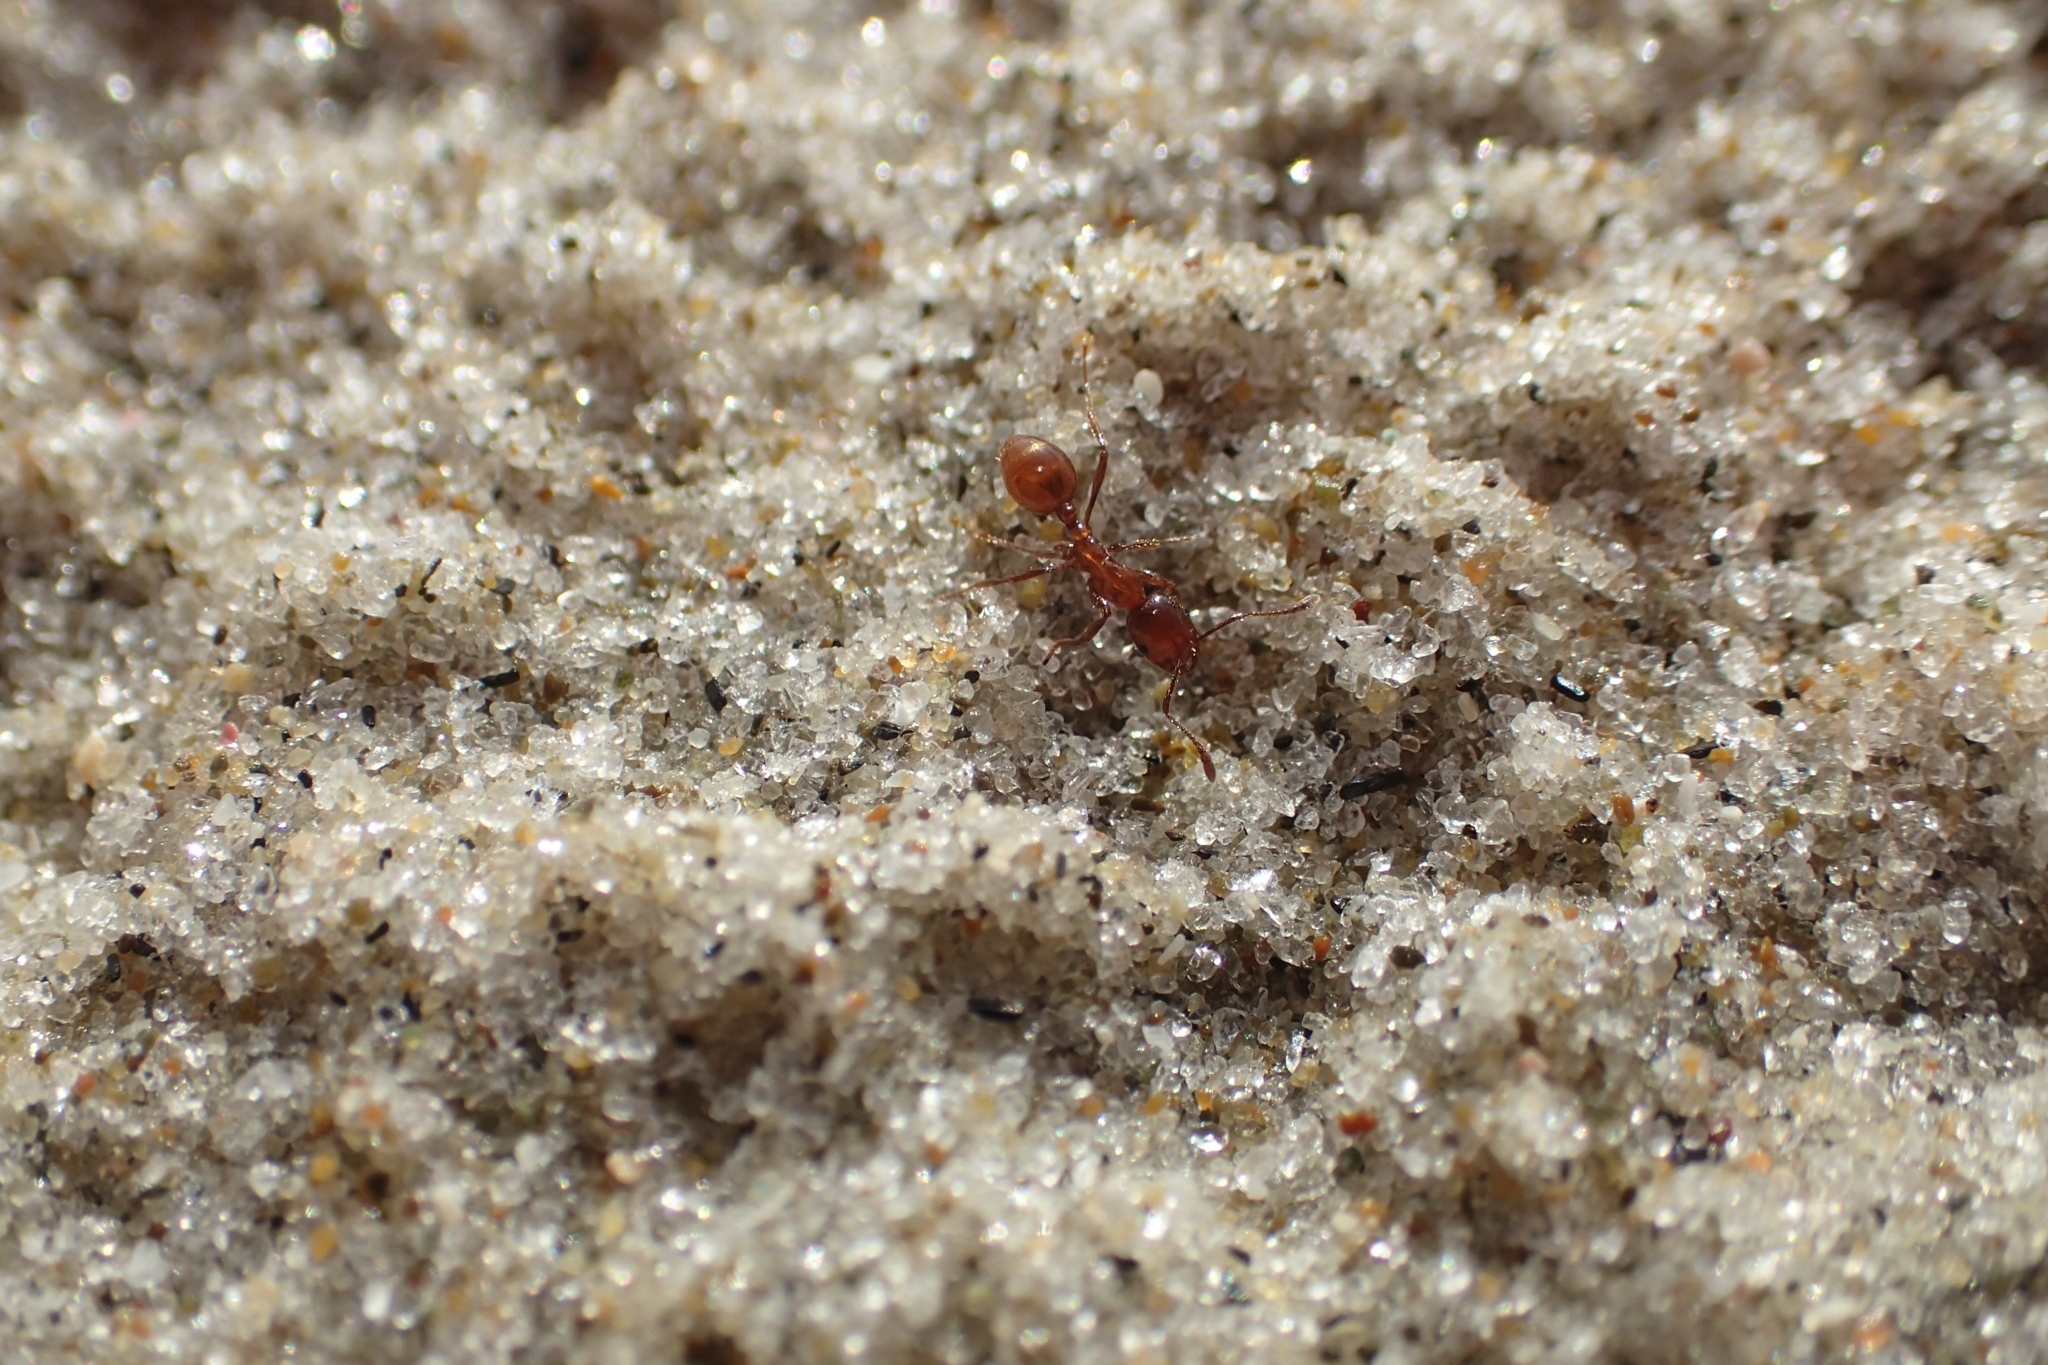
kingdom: Animalia
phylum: Arthropoda
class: Insecta
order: Hymenoptera
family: Formicidae
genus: Monomorium
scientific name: Monomorium antarcticum
